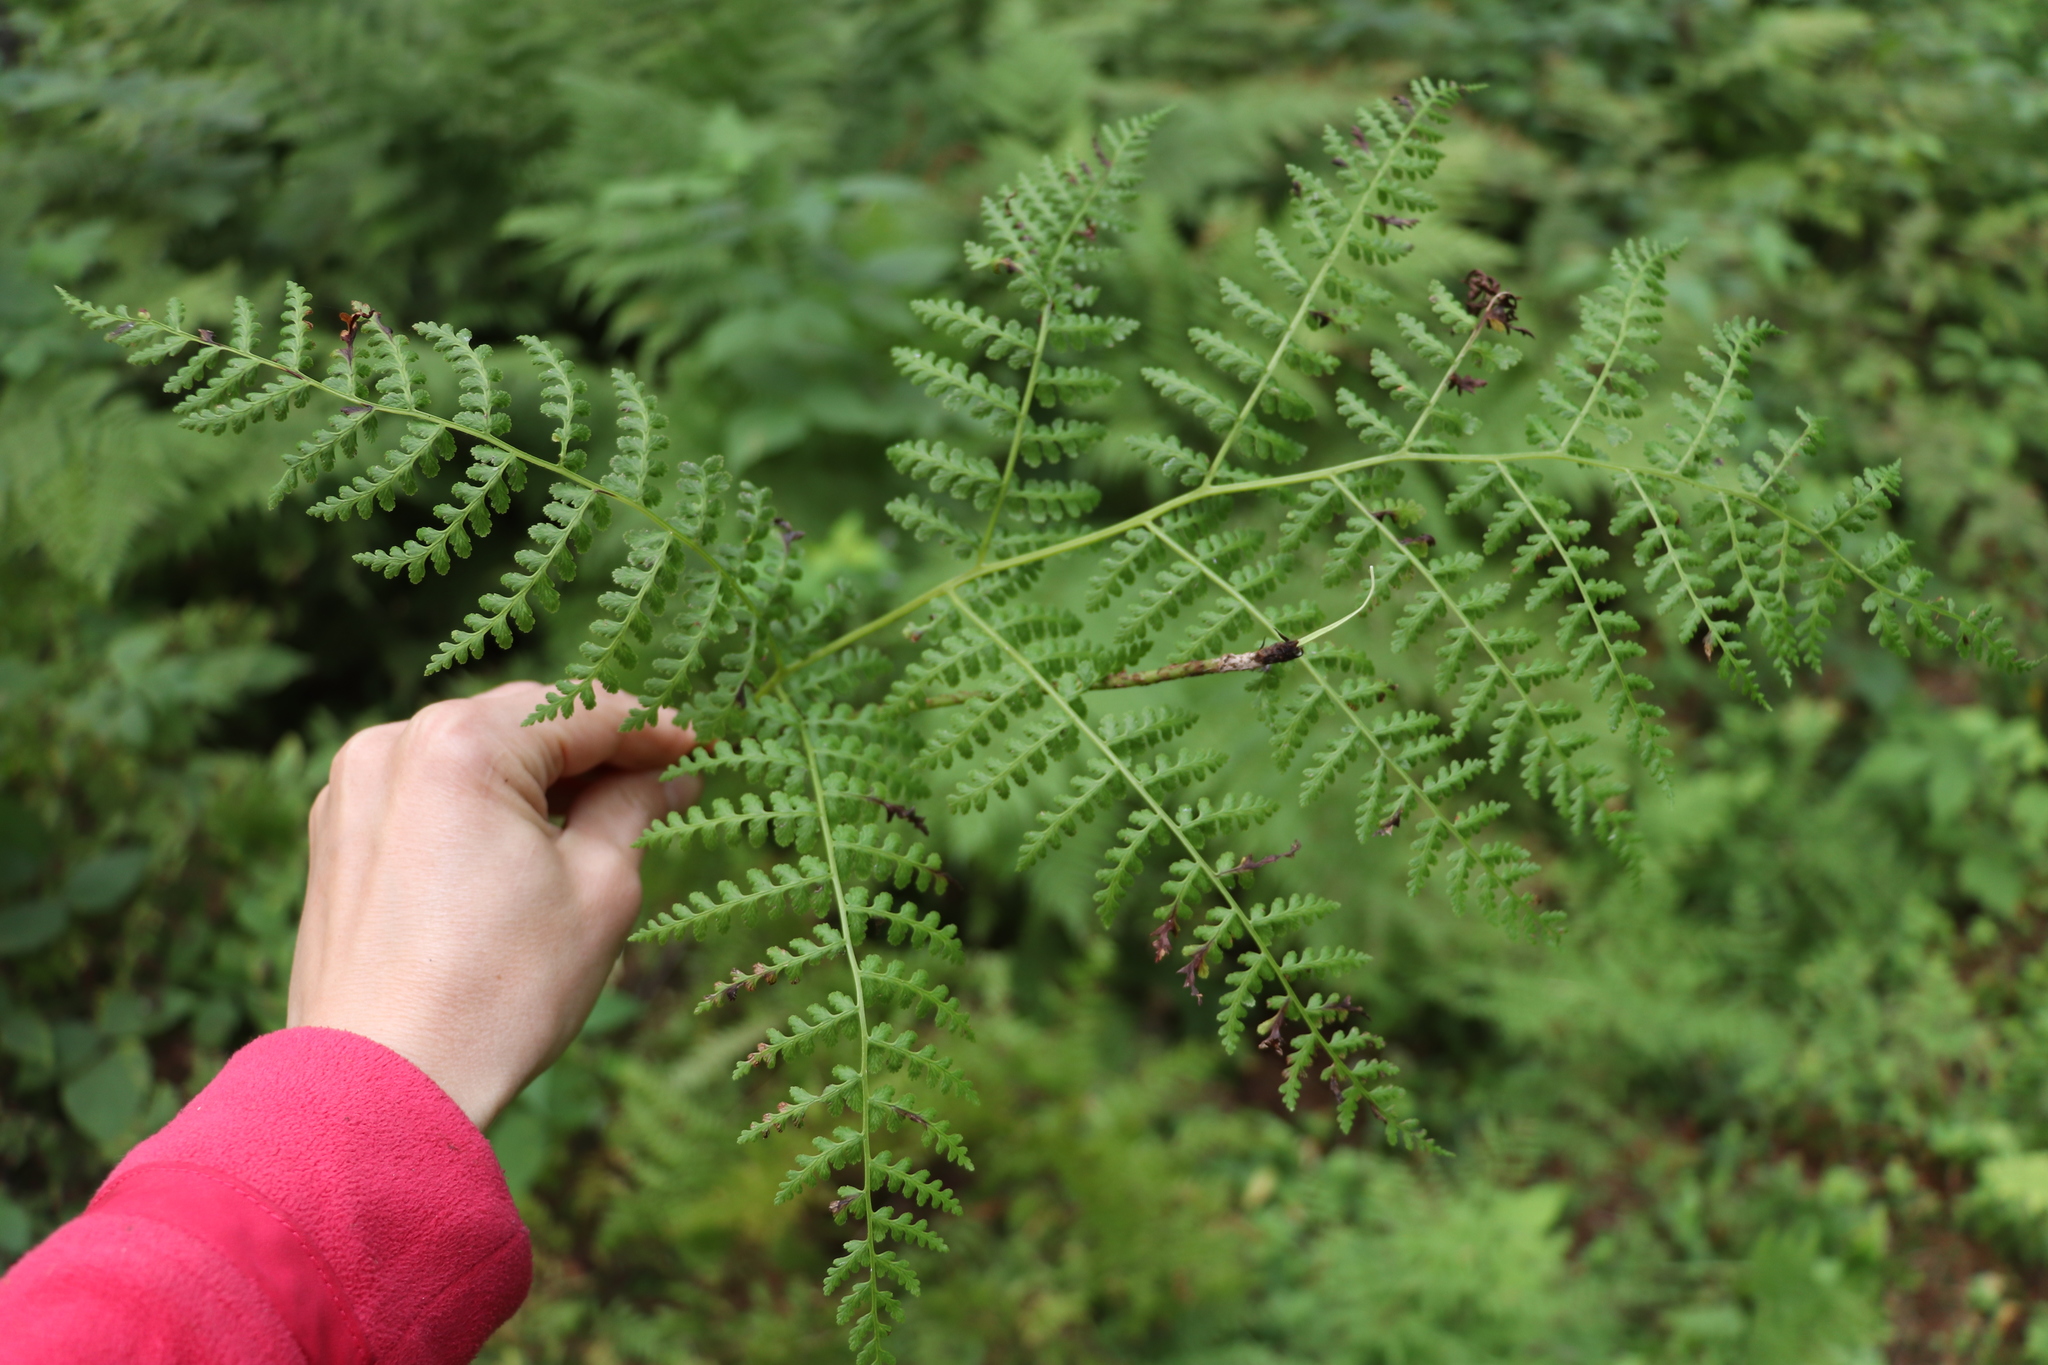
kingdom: Plantae
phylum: Tracheophyta
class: Polypodiopsida
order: Polypodiales
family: Athyriaceae
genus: Diplazium
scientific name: Diplazium sibiricum
